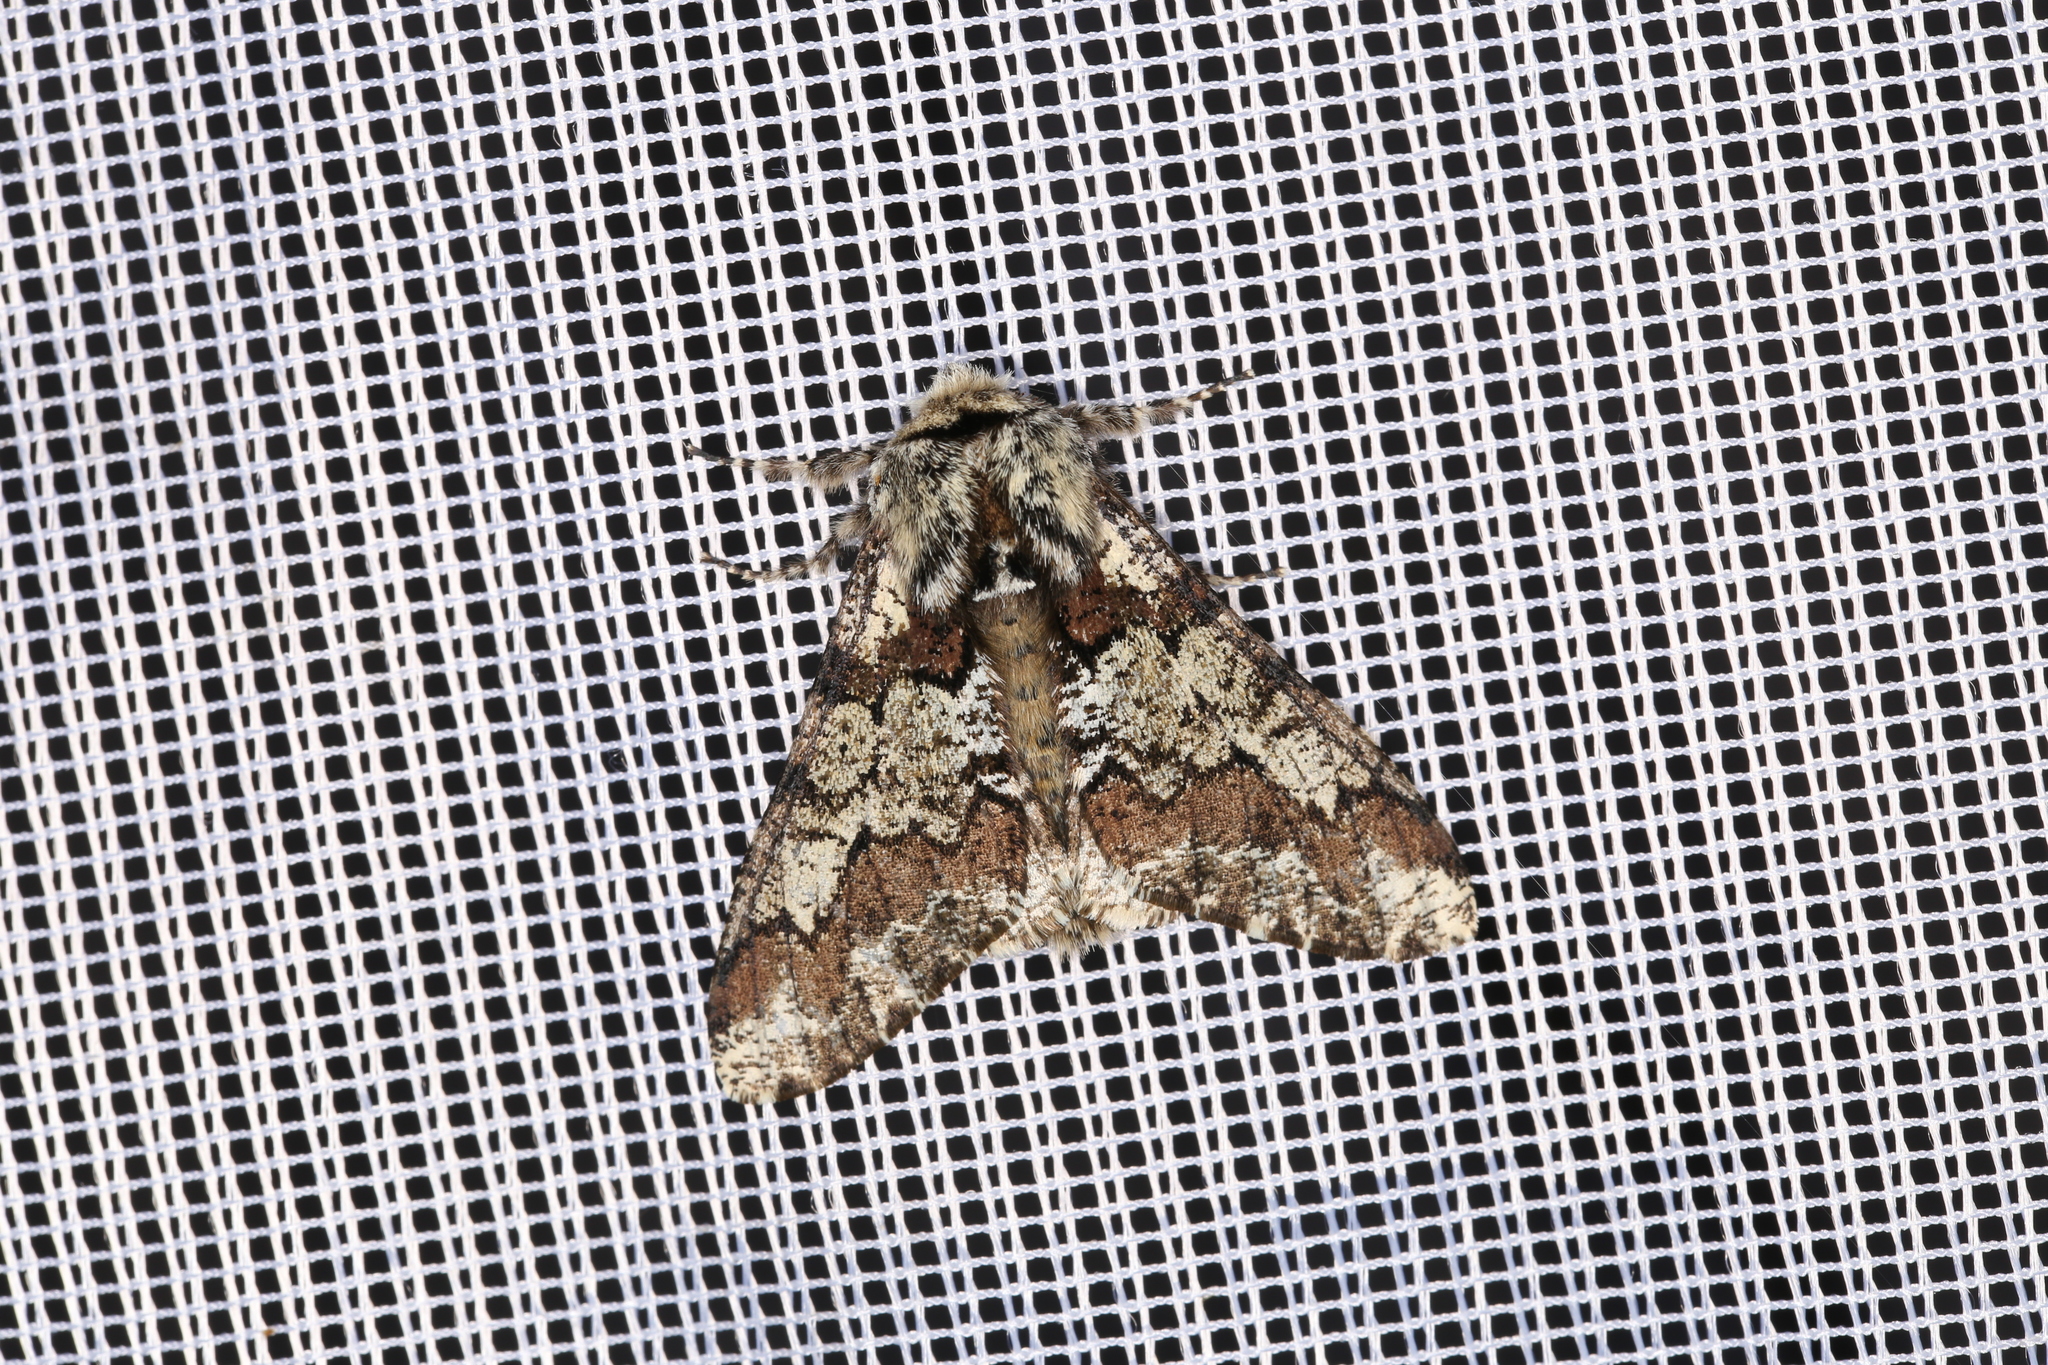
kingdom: Animalia
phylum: Arthropoda
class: Insecta
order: Lepidoptera
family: Geometridae
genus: Biston
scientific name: Biston strataria
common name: Oak beauty
